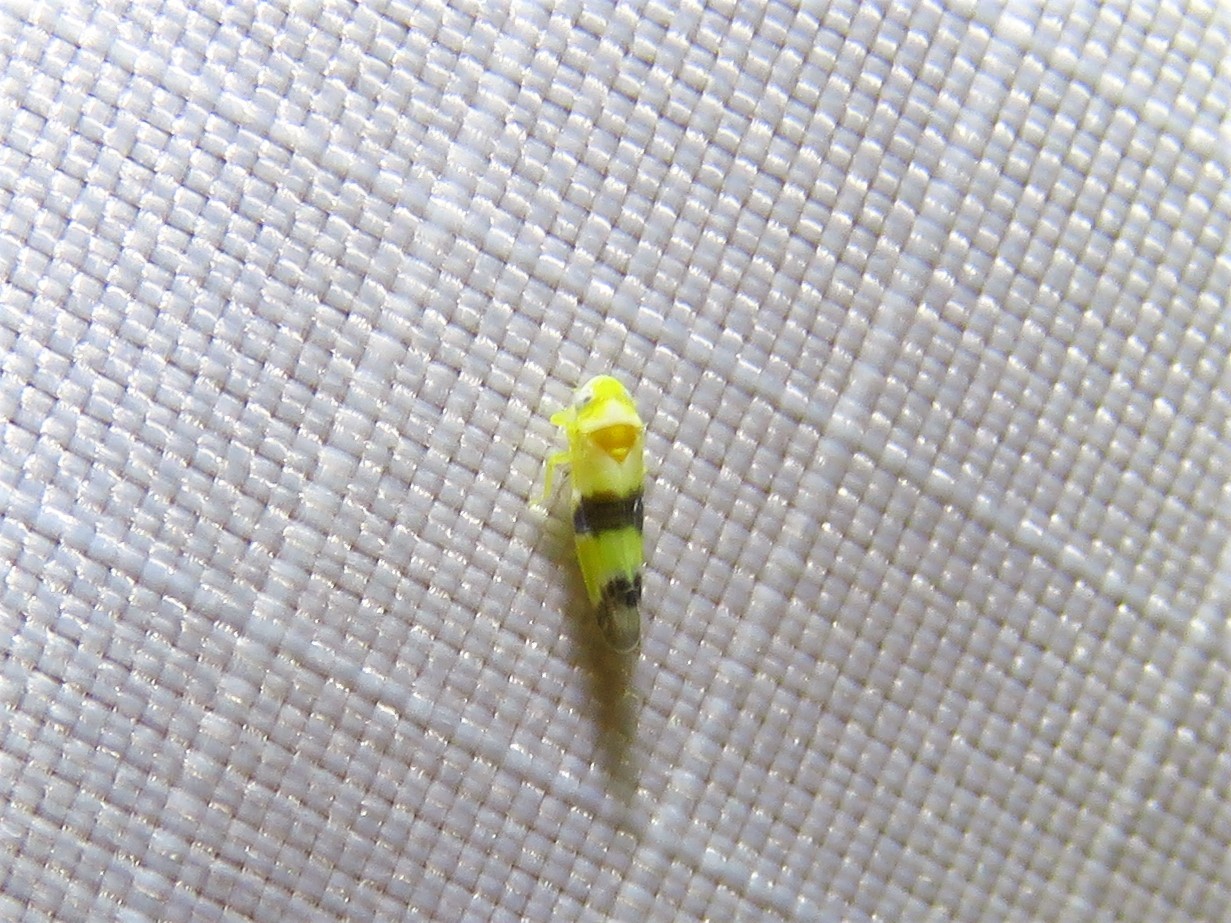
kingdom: Animalia
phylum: Arthropoda
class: Insecta
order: Hemiptera
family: Cicadellidae
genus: Empoa
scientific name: Empoa venusta
